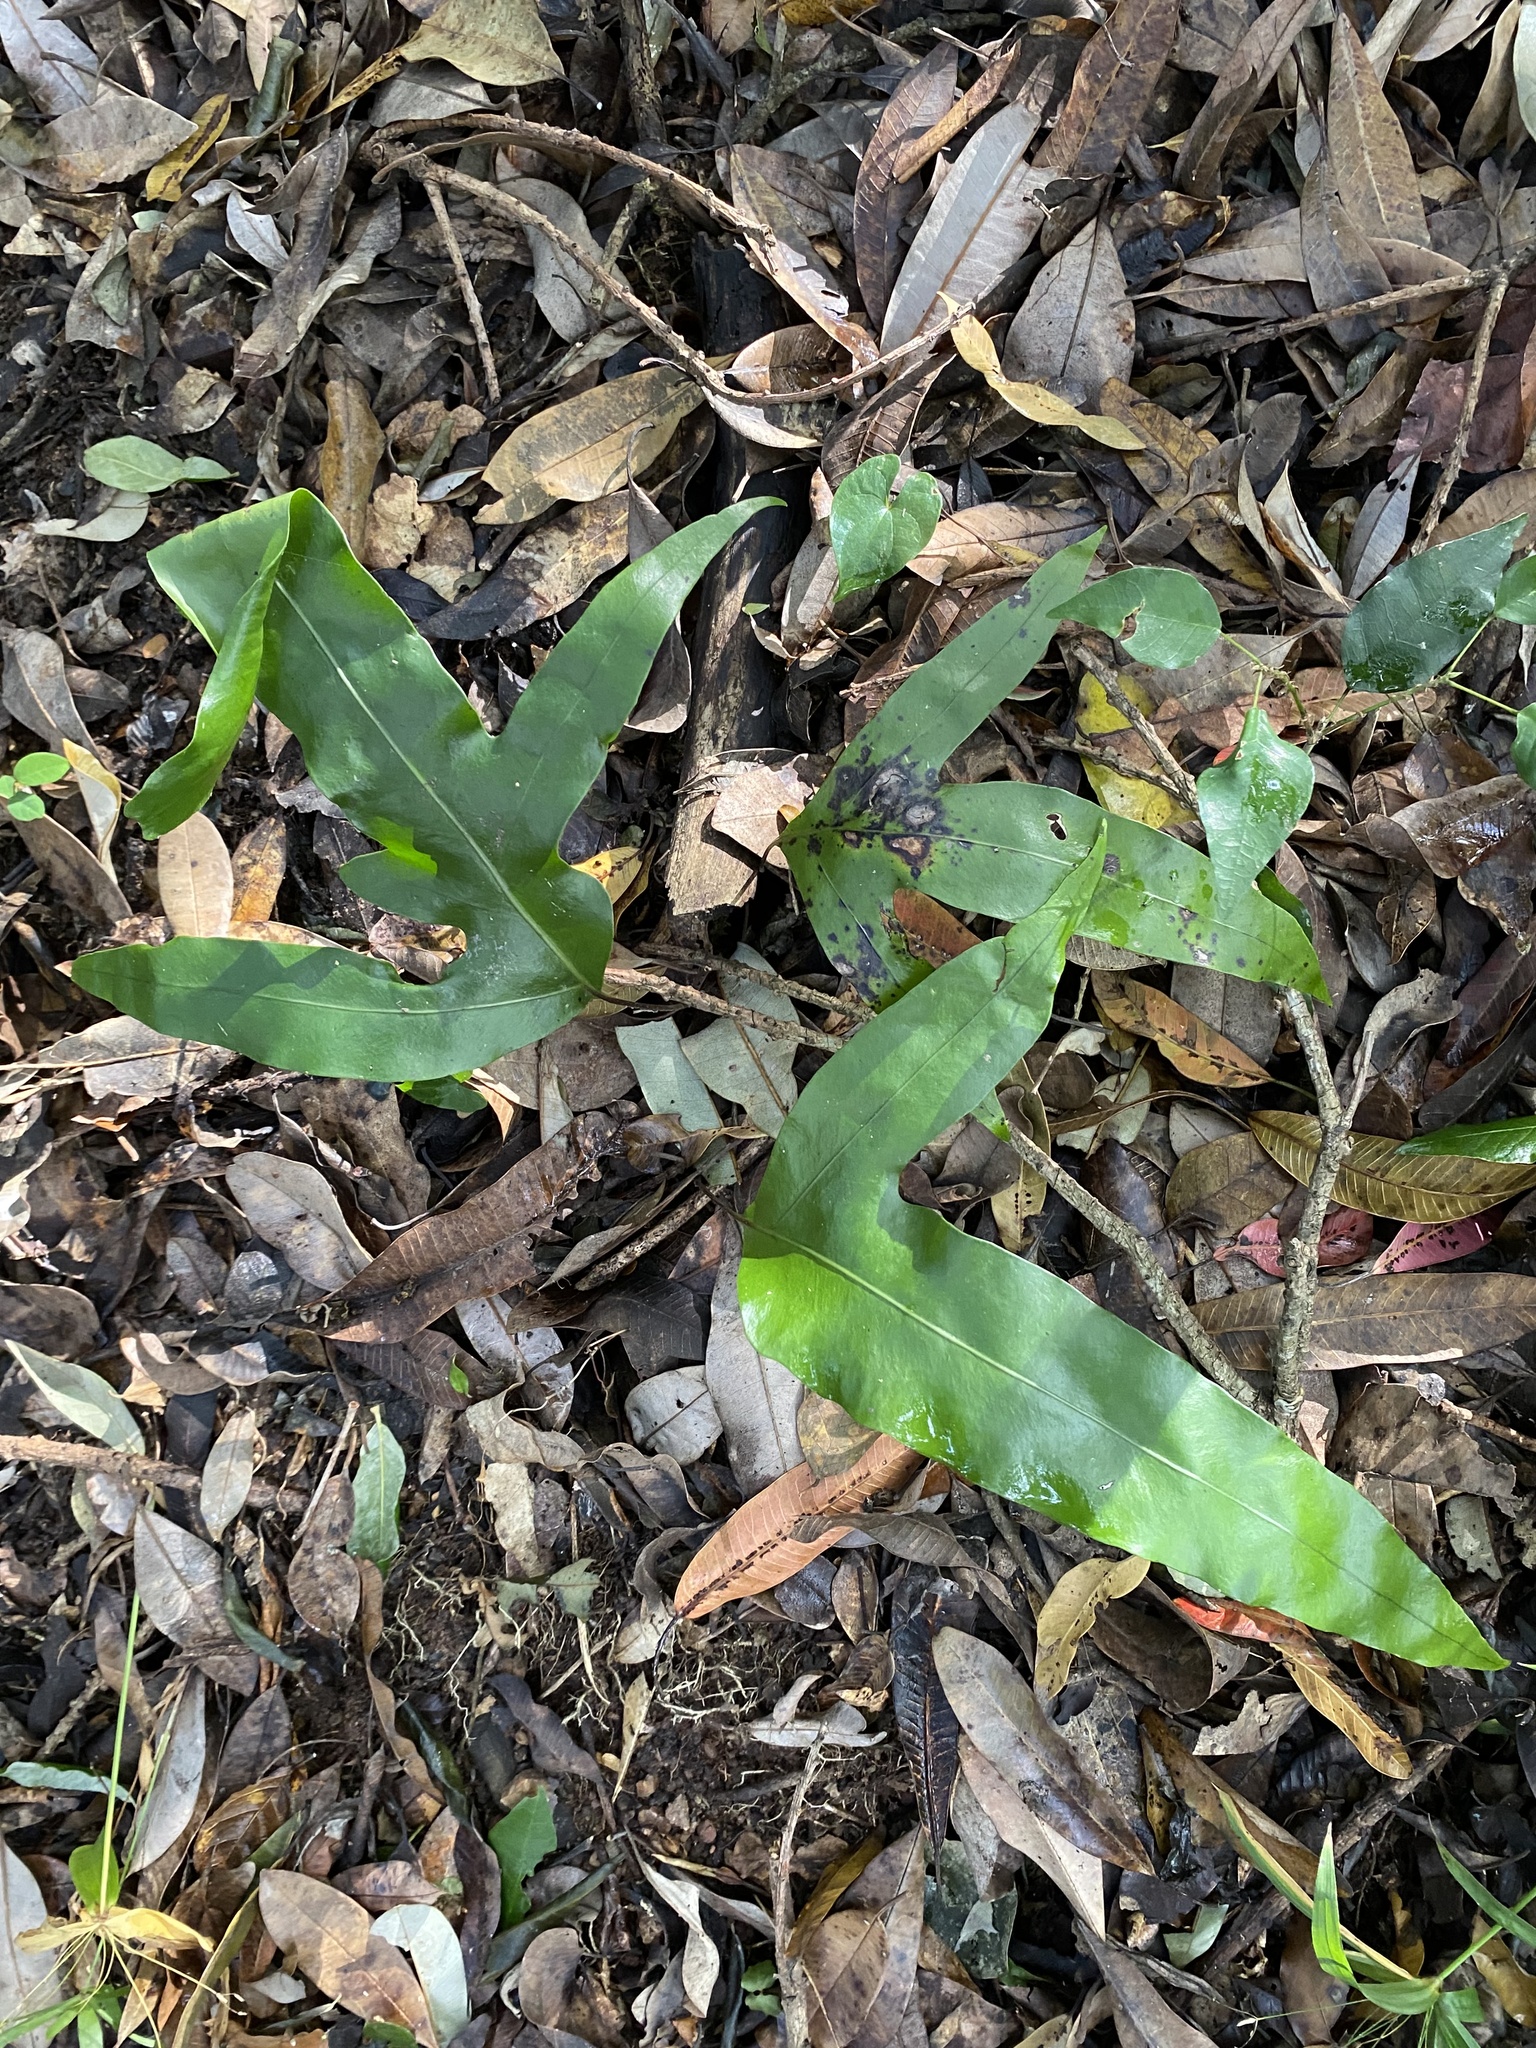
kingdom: Plantae
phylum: Tracheophyta
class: Polypodiopsida
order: Polypodiales
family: Polypodiaceae
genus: Microsorum
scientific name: Microsorum scolopendria
